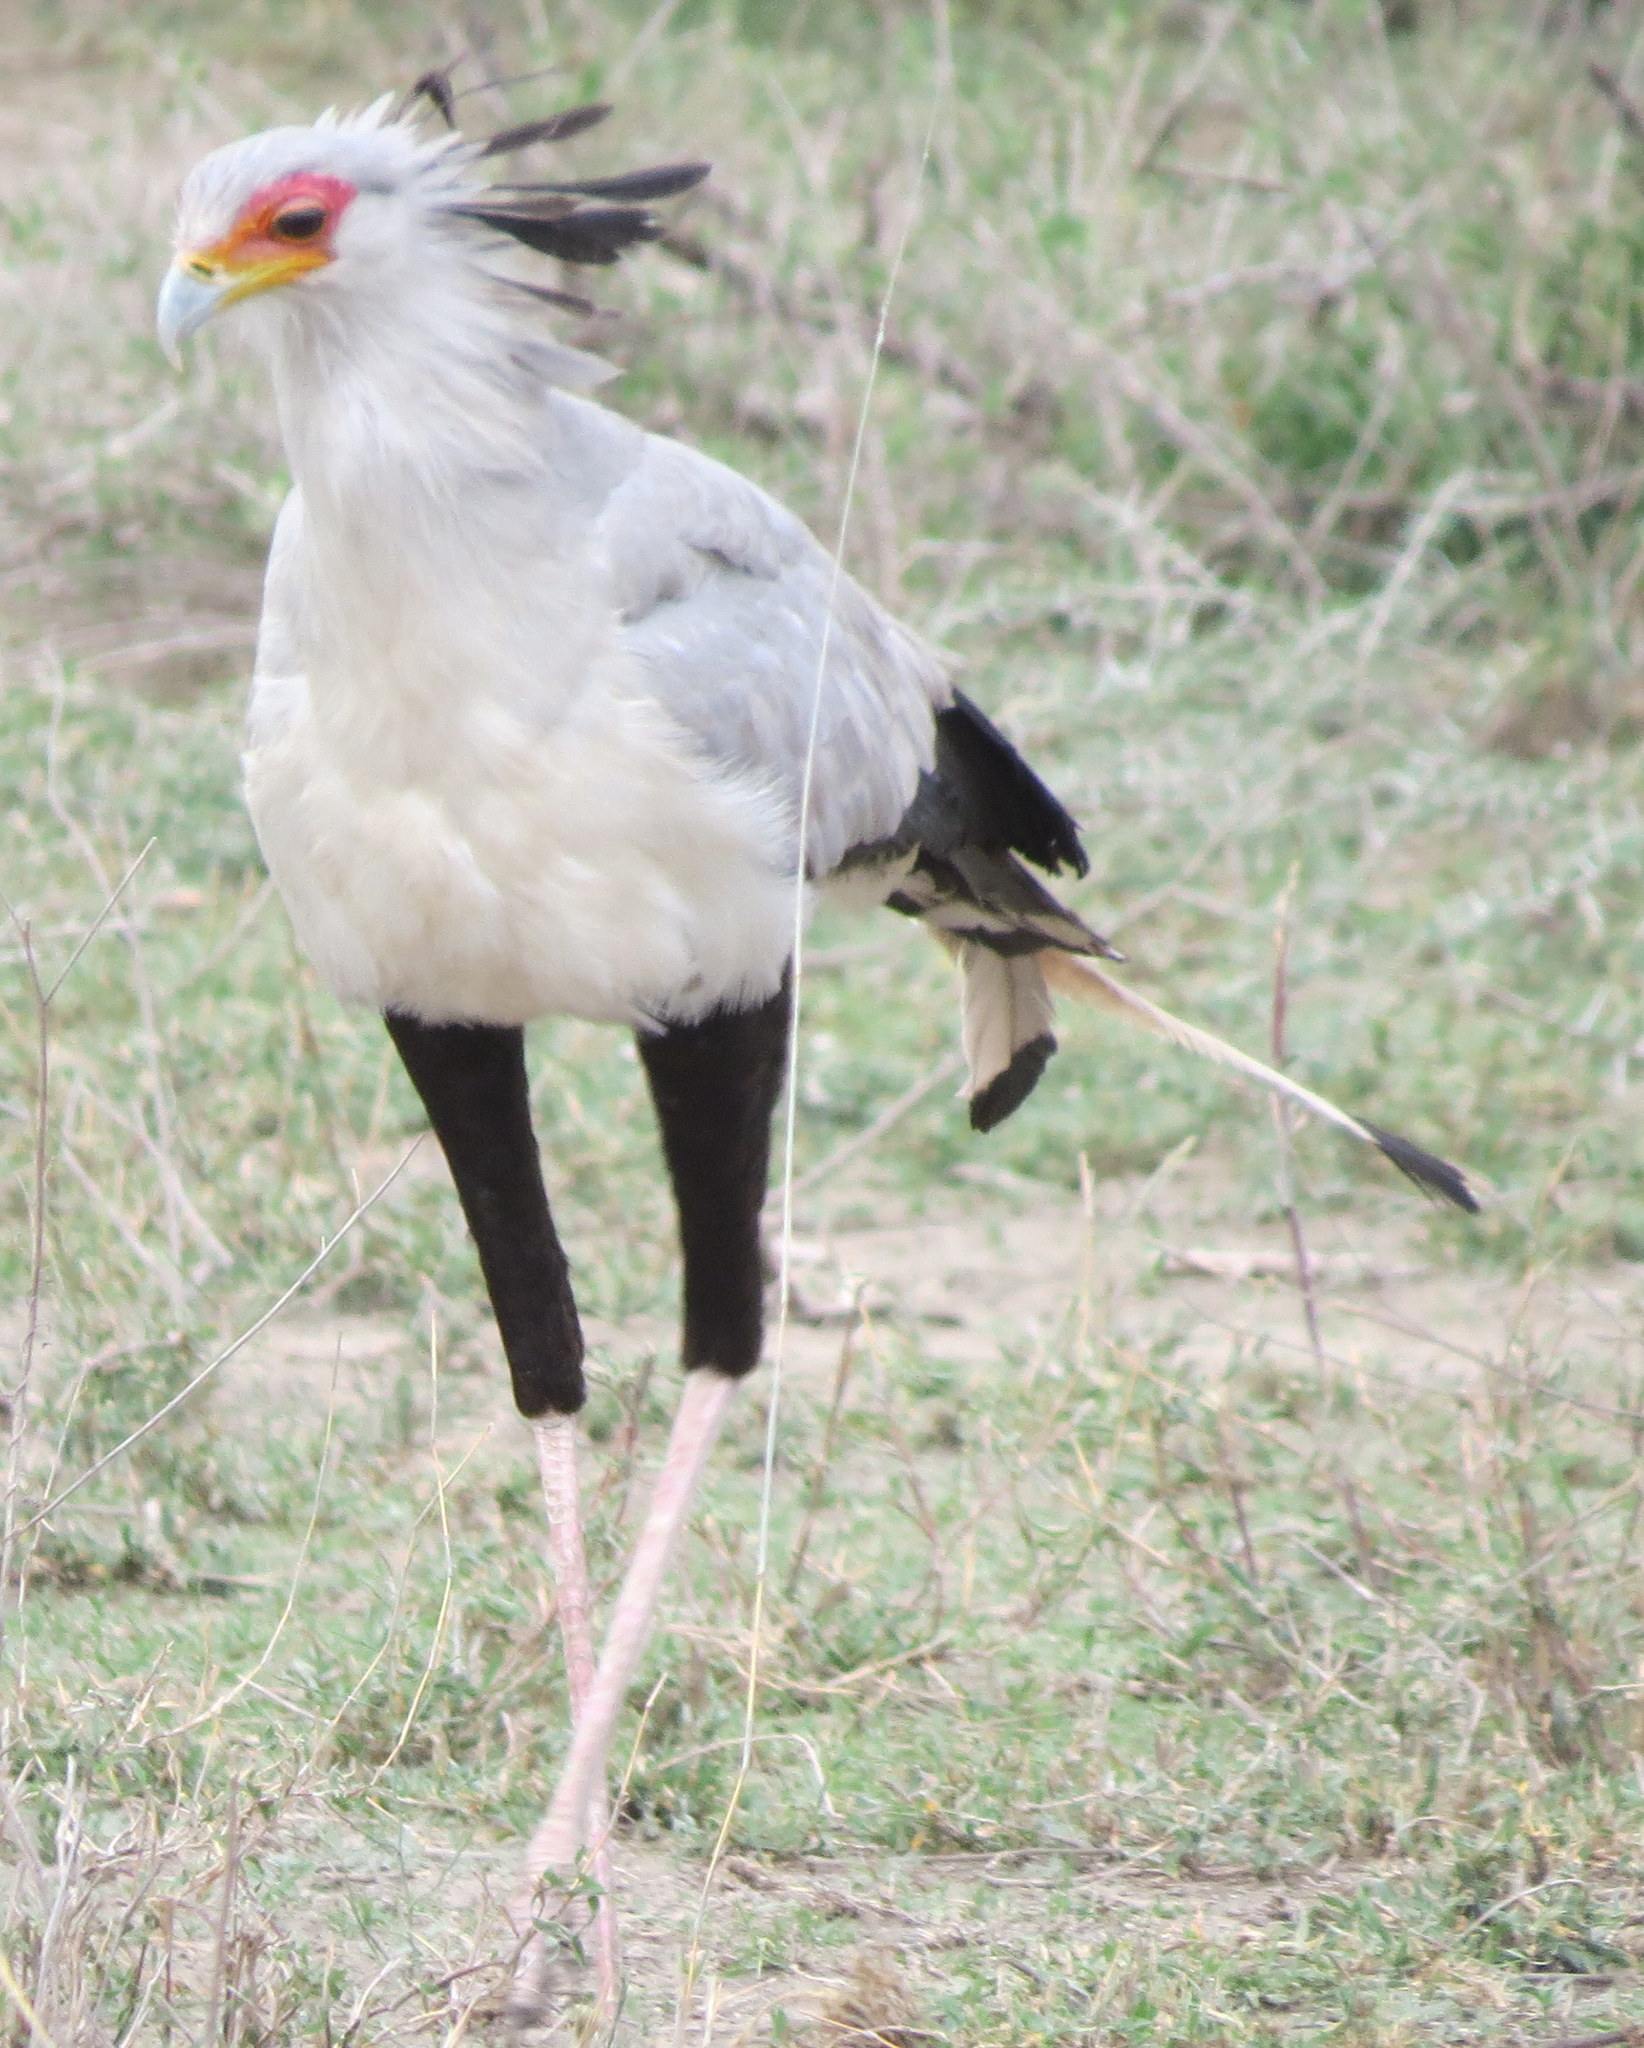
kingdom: Animalia
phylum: Chordata
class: Aves
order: Accipitriformes
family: Sagittariidae
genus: Sagittarius
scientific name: Sagittarius serpentarius
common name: Secretarybird
